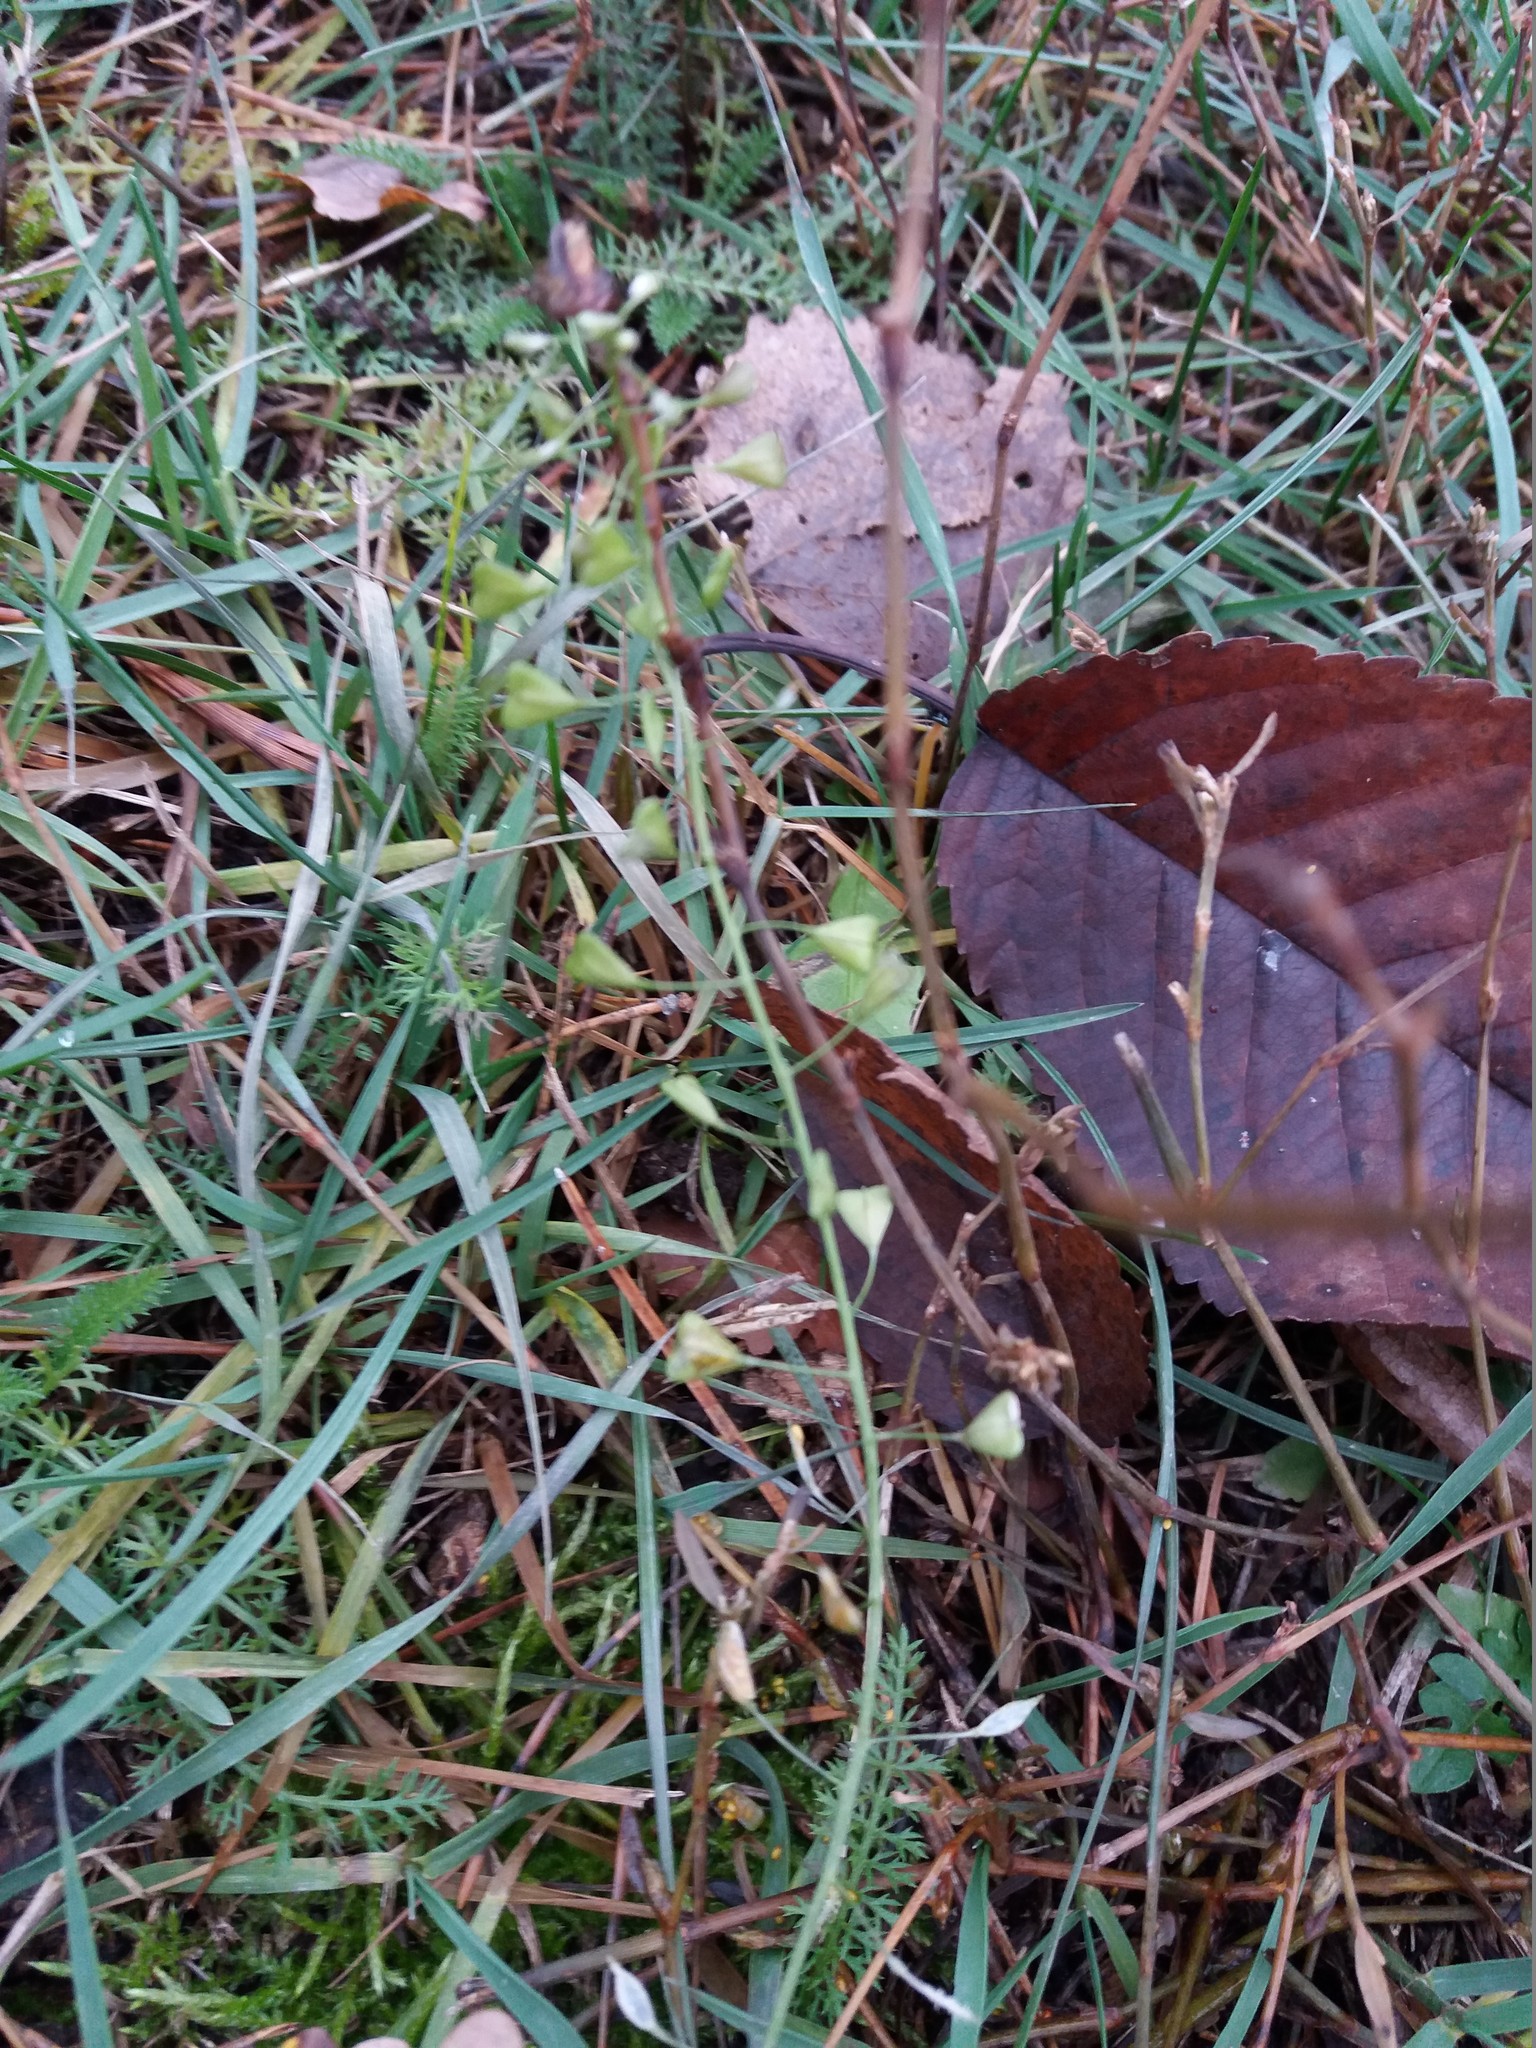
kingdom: Plantae
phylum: Tracheophyta
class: Magnoliopsida
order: Brassicales
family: Brassicaceae
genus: Capsella
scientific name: Capsella bursa-pastoris
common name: Shepherd's purse
